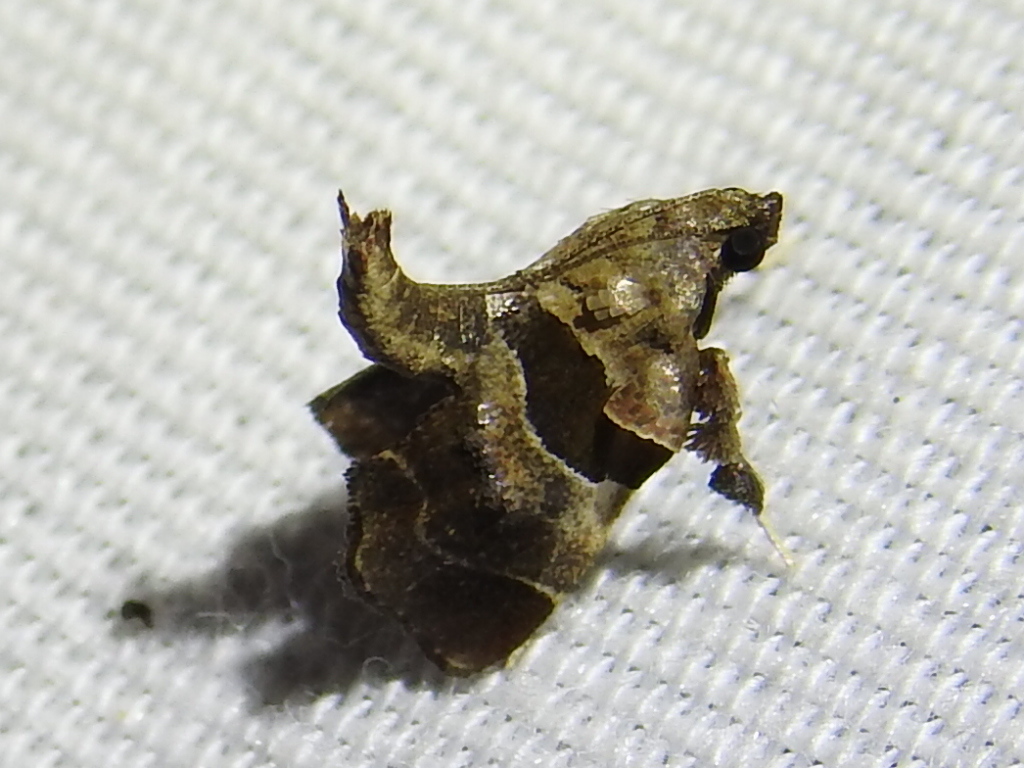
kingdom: Animalia
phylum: Arthropoda
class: Insecta
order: Lepidoptera
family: Pyralidae
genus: Tosale
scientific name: Tosale oviplagalis
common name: Dimorphic tosale moth
